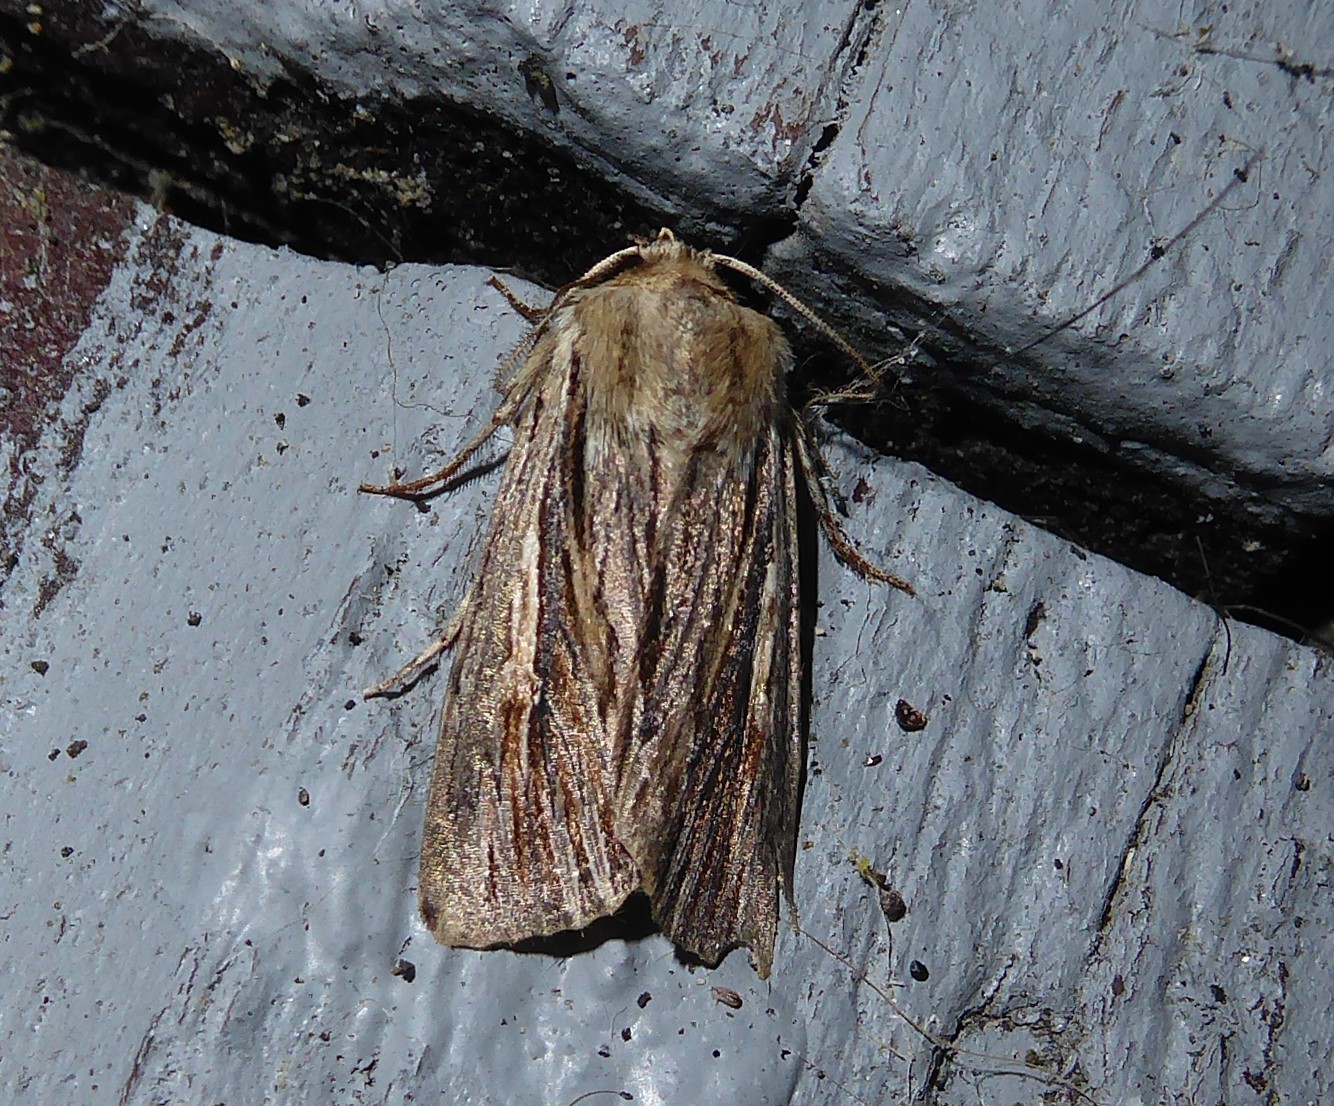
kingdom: Animalia
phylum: Arthropoda
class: Insecta
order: Lepidoptera
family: Noctuidae
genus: Persectania
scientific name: Persectania aversa
